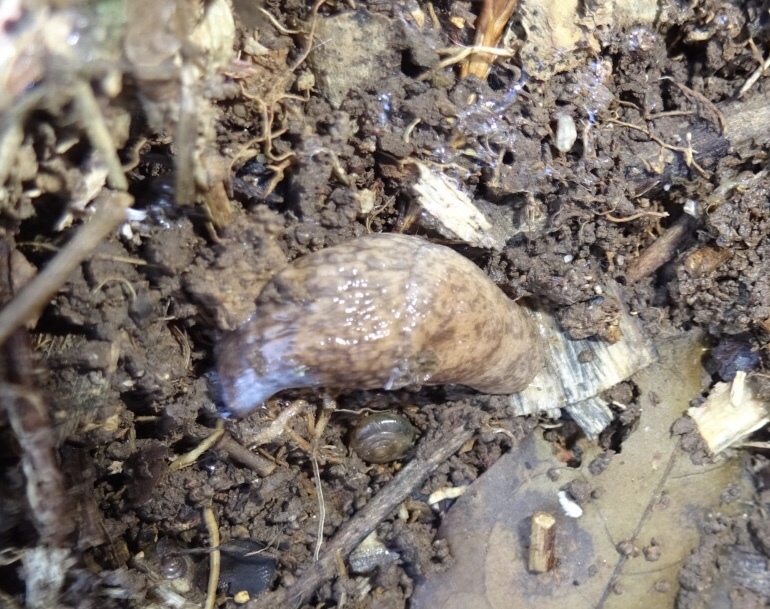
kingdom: Animalia
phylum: Mollusca
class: Gastropoda
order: Stylommatophora
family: Agriolimacidae
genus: Deroceras
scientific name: Deroceras reticulatum
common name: Gray field slug
